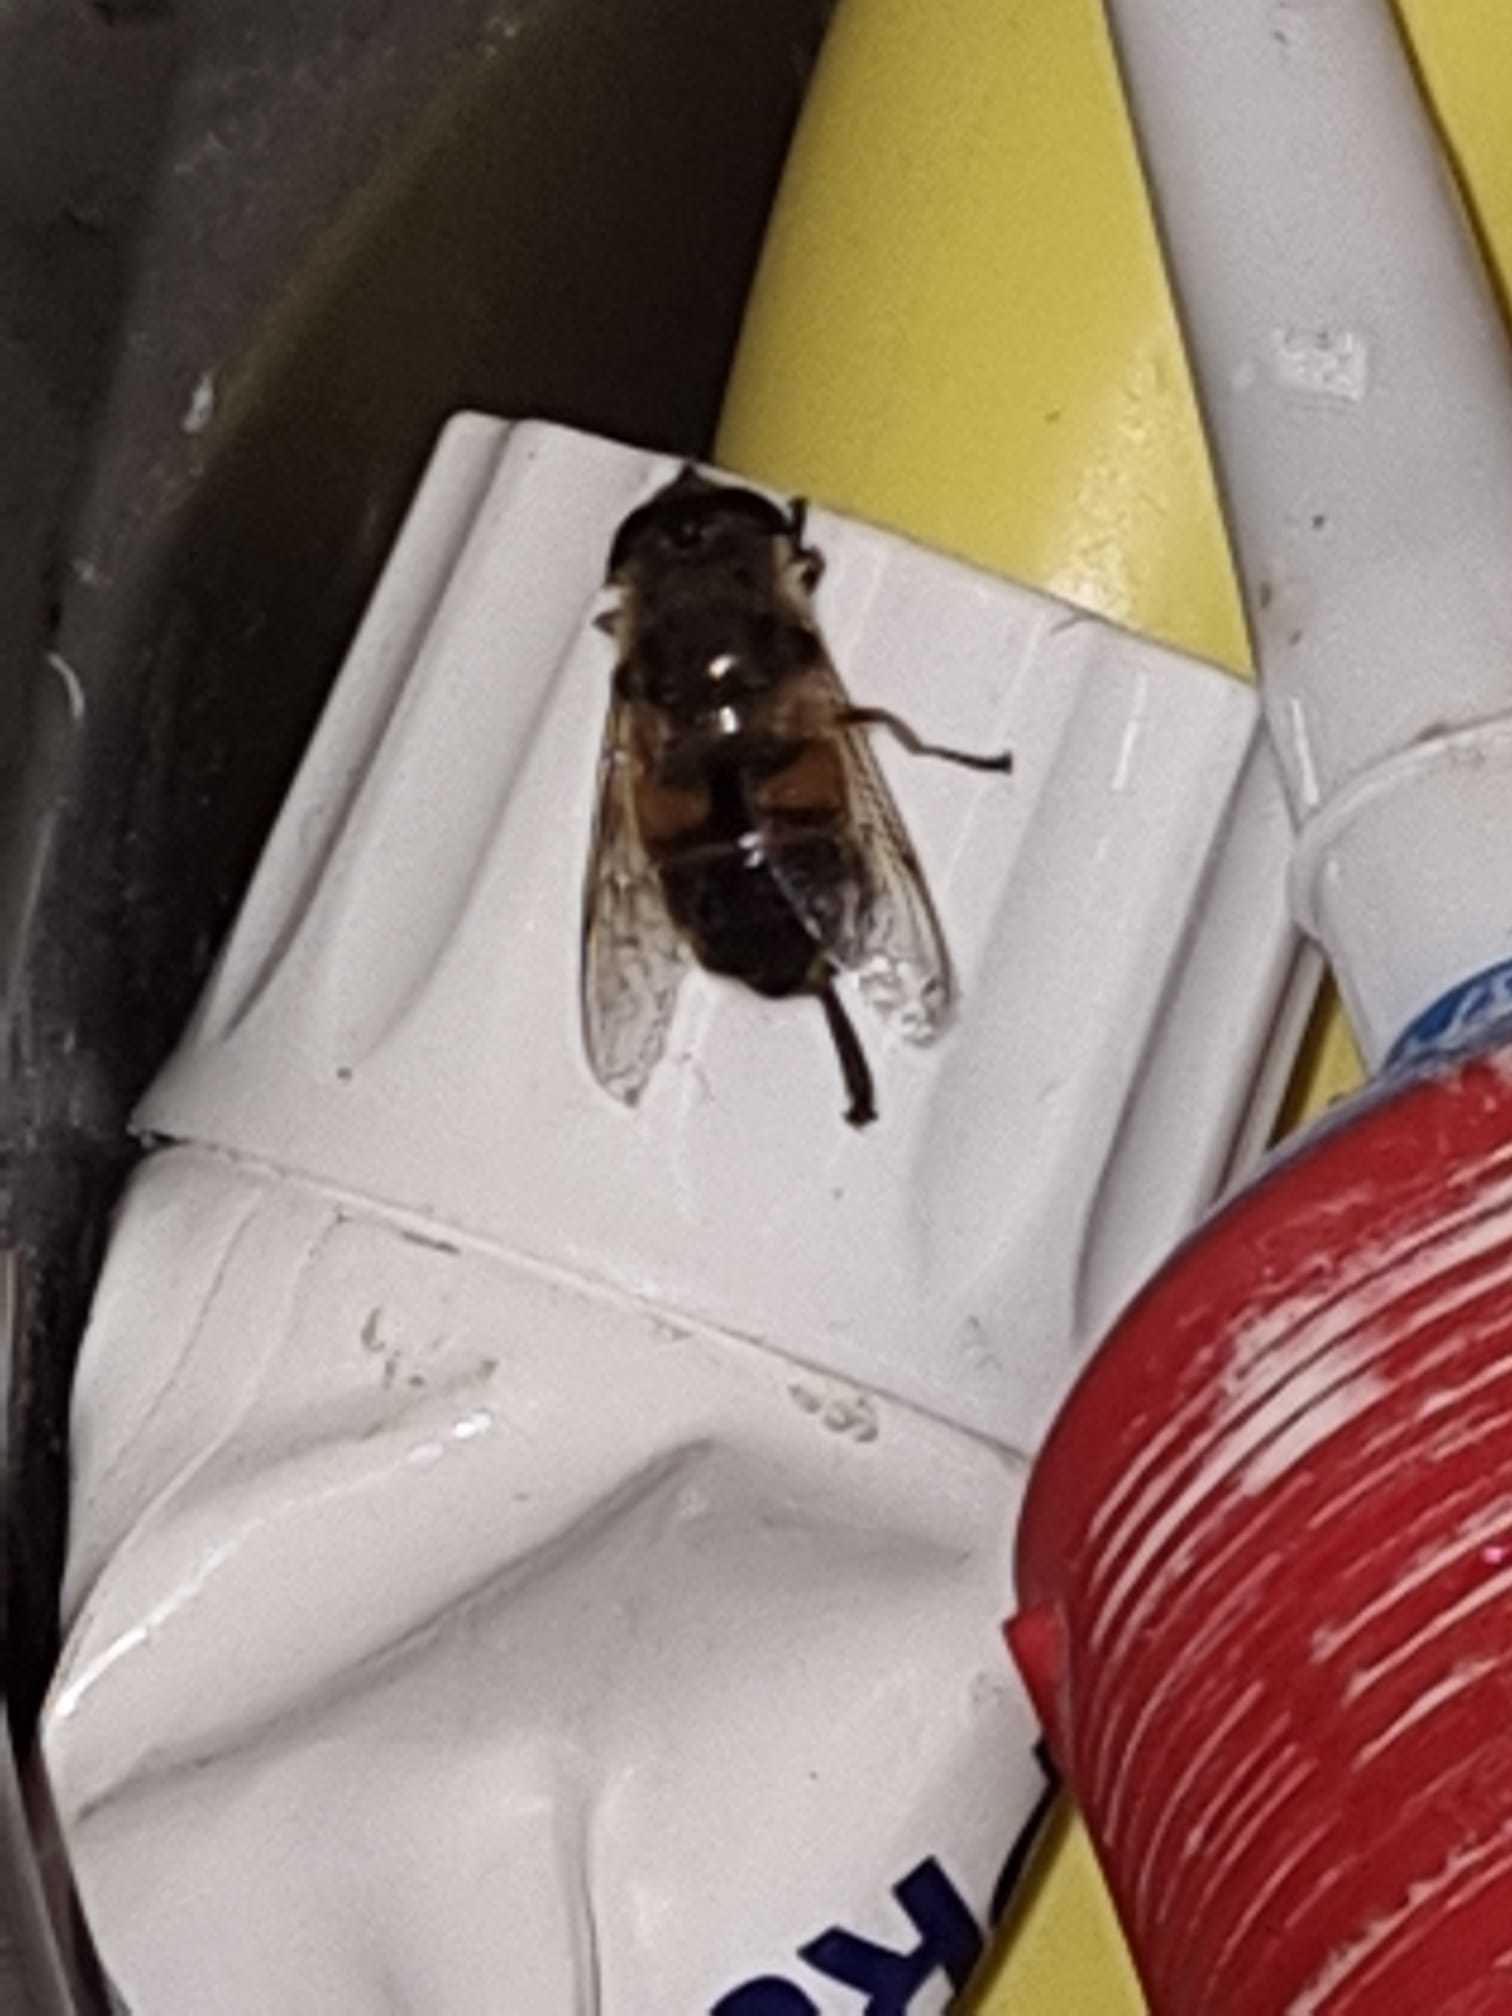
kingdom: Animalia
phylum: Arthropoda
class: Insecta
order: Diptera
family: Syrphidae
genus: Eristalis
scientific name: Eristalis tenax
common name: Drone fly
